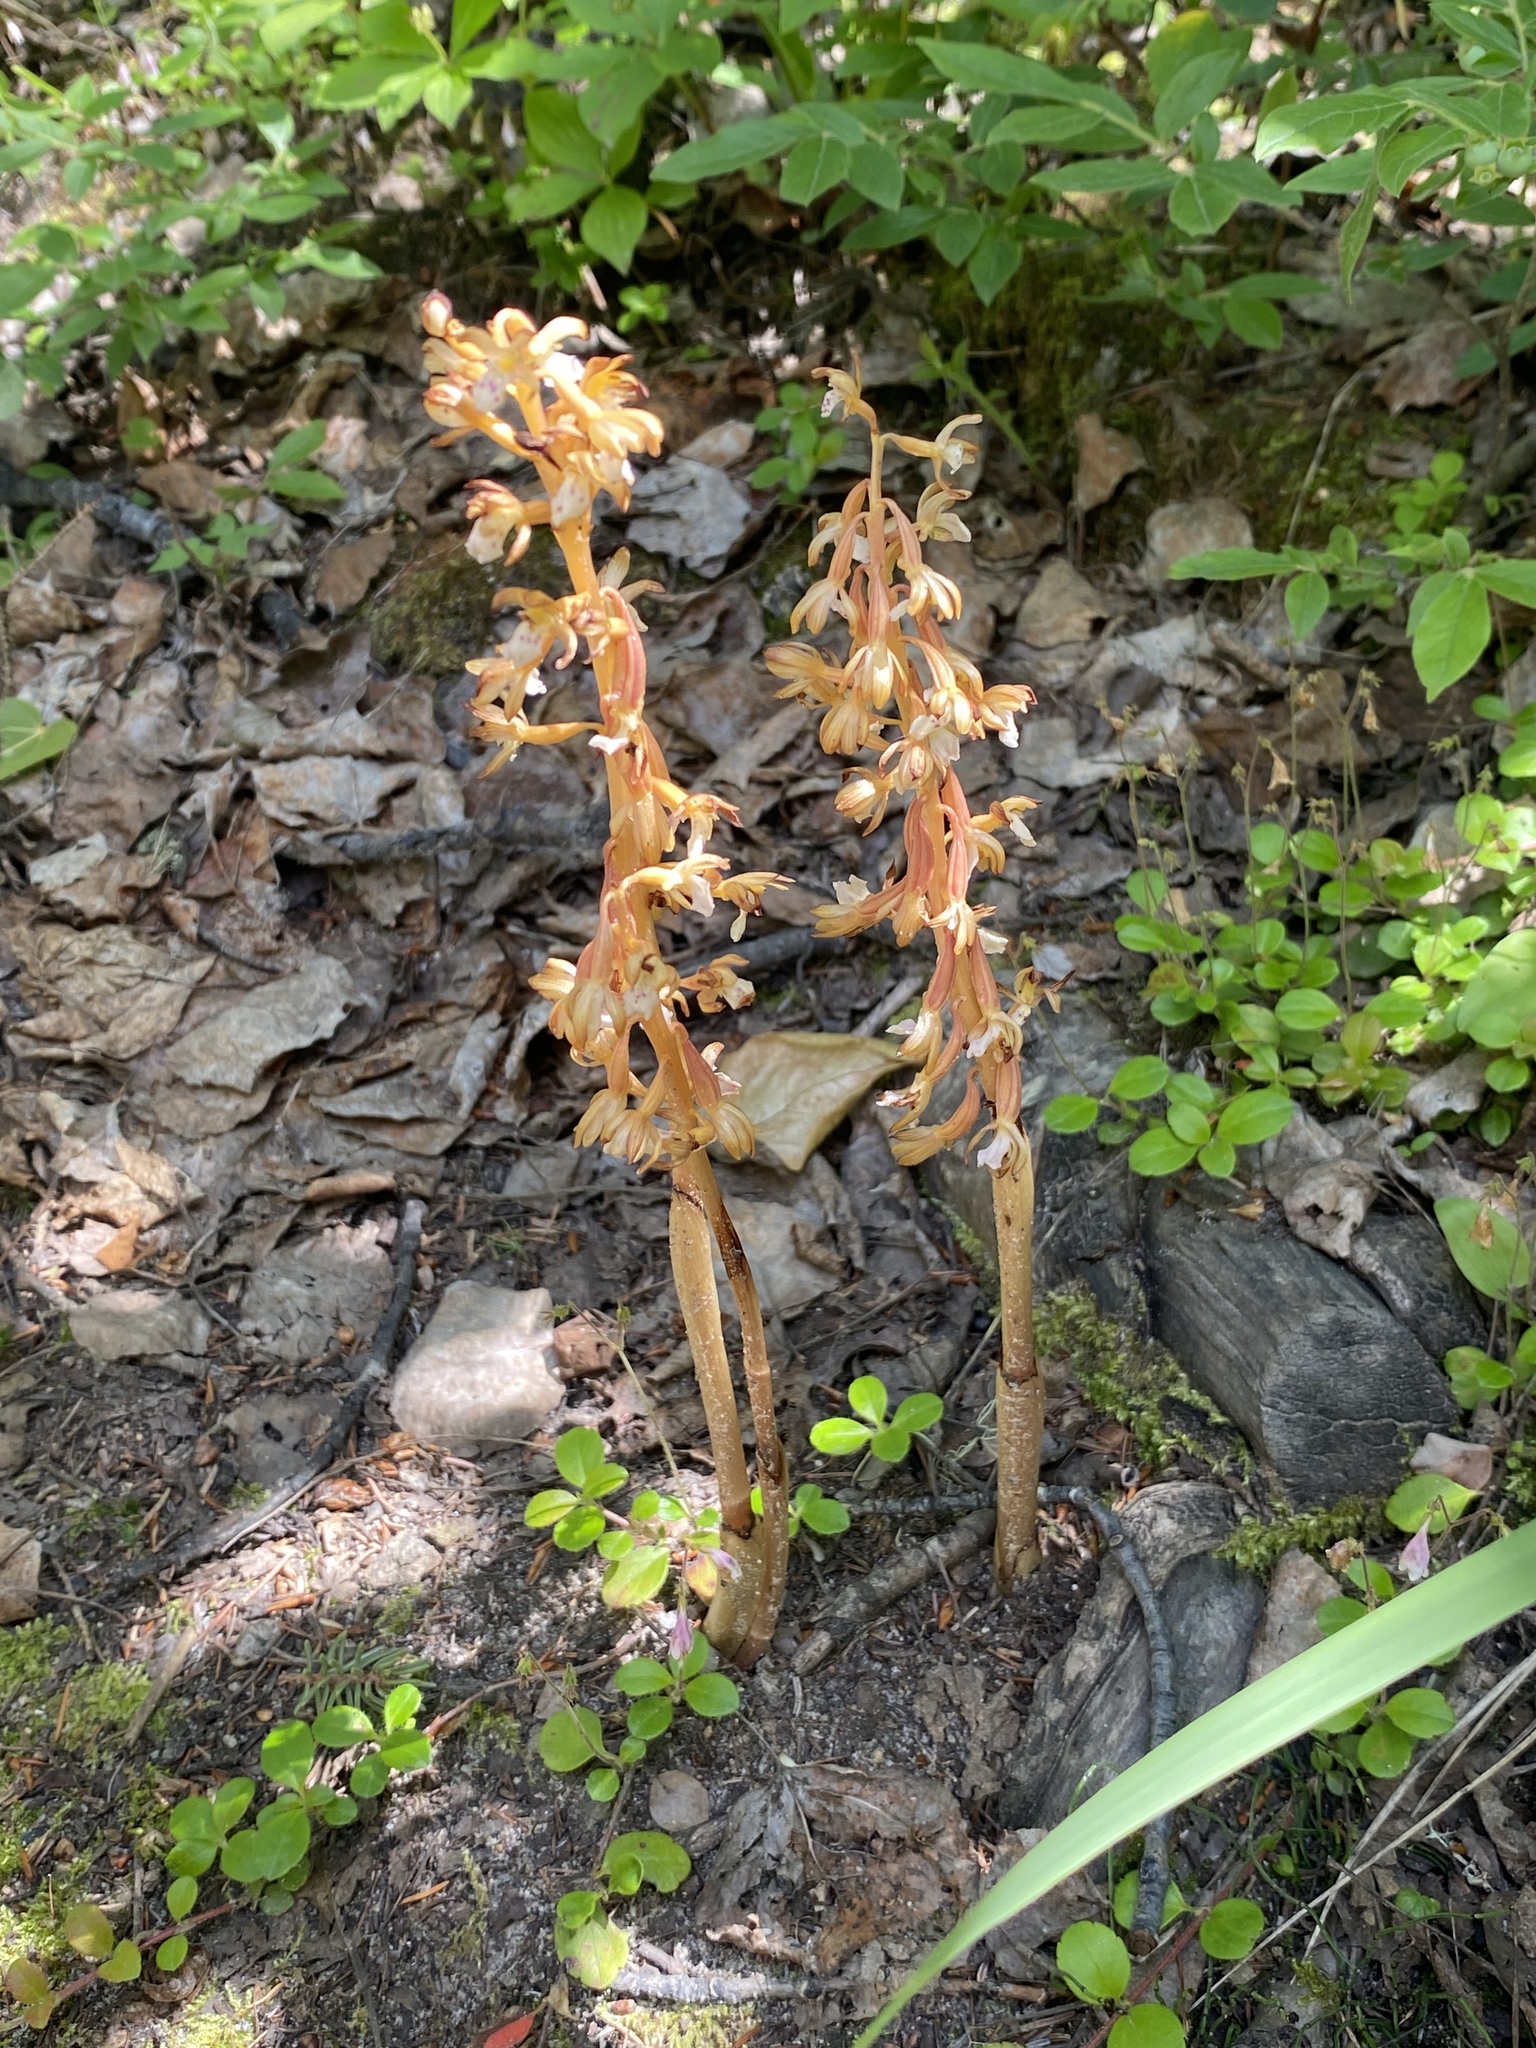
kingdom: Plantae
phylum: Tracheophyta
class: Liliopsida
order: Asparagales
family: Orchidaceae
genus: Corallorhiza
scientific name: Corallorhiza maculata
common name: Spotted coralroot
